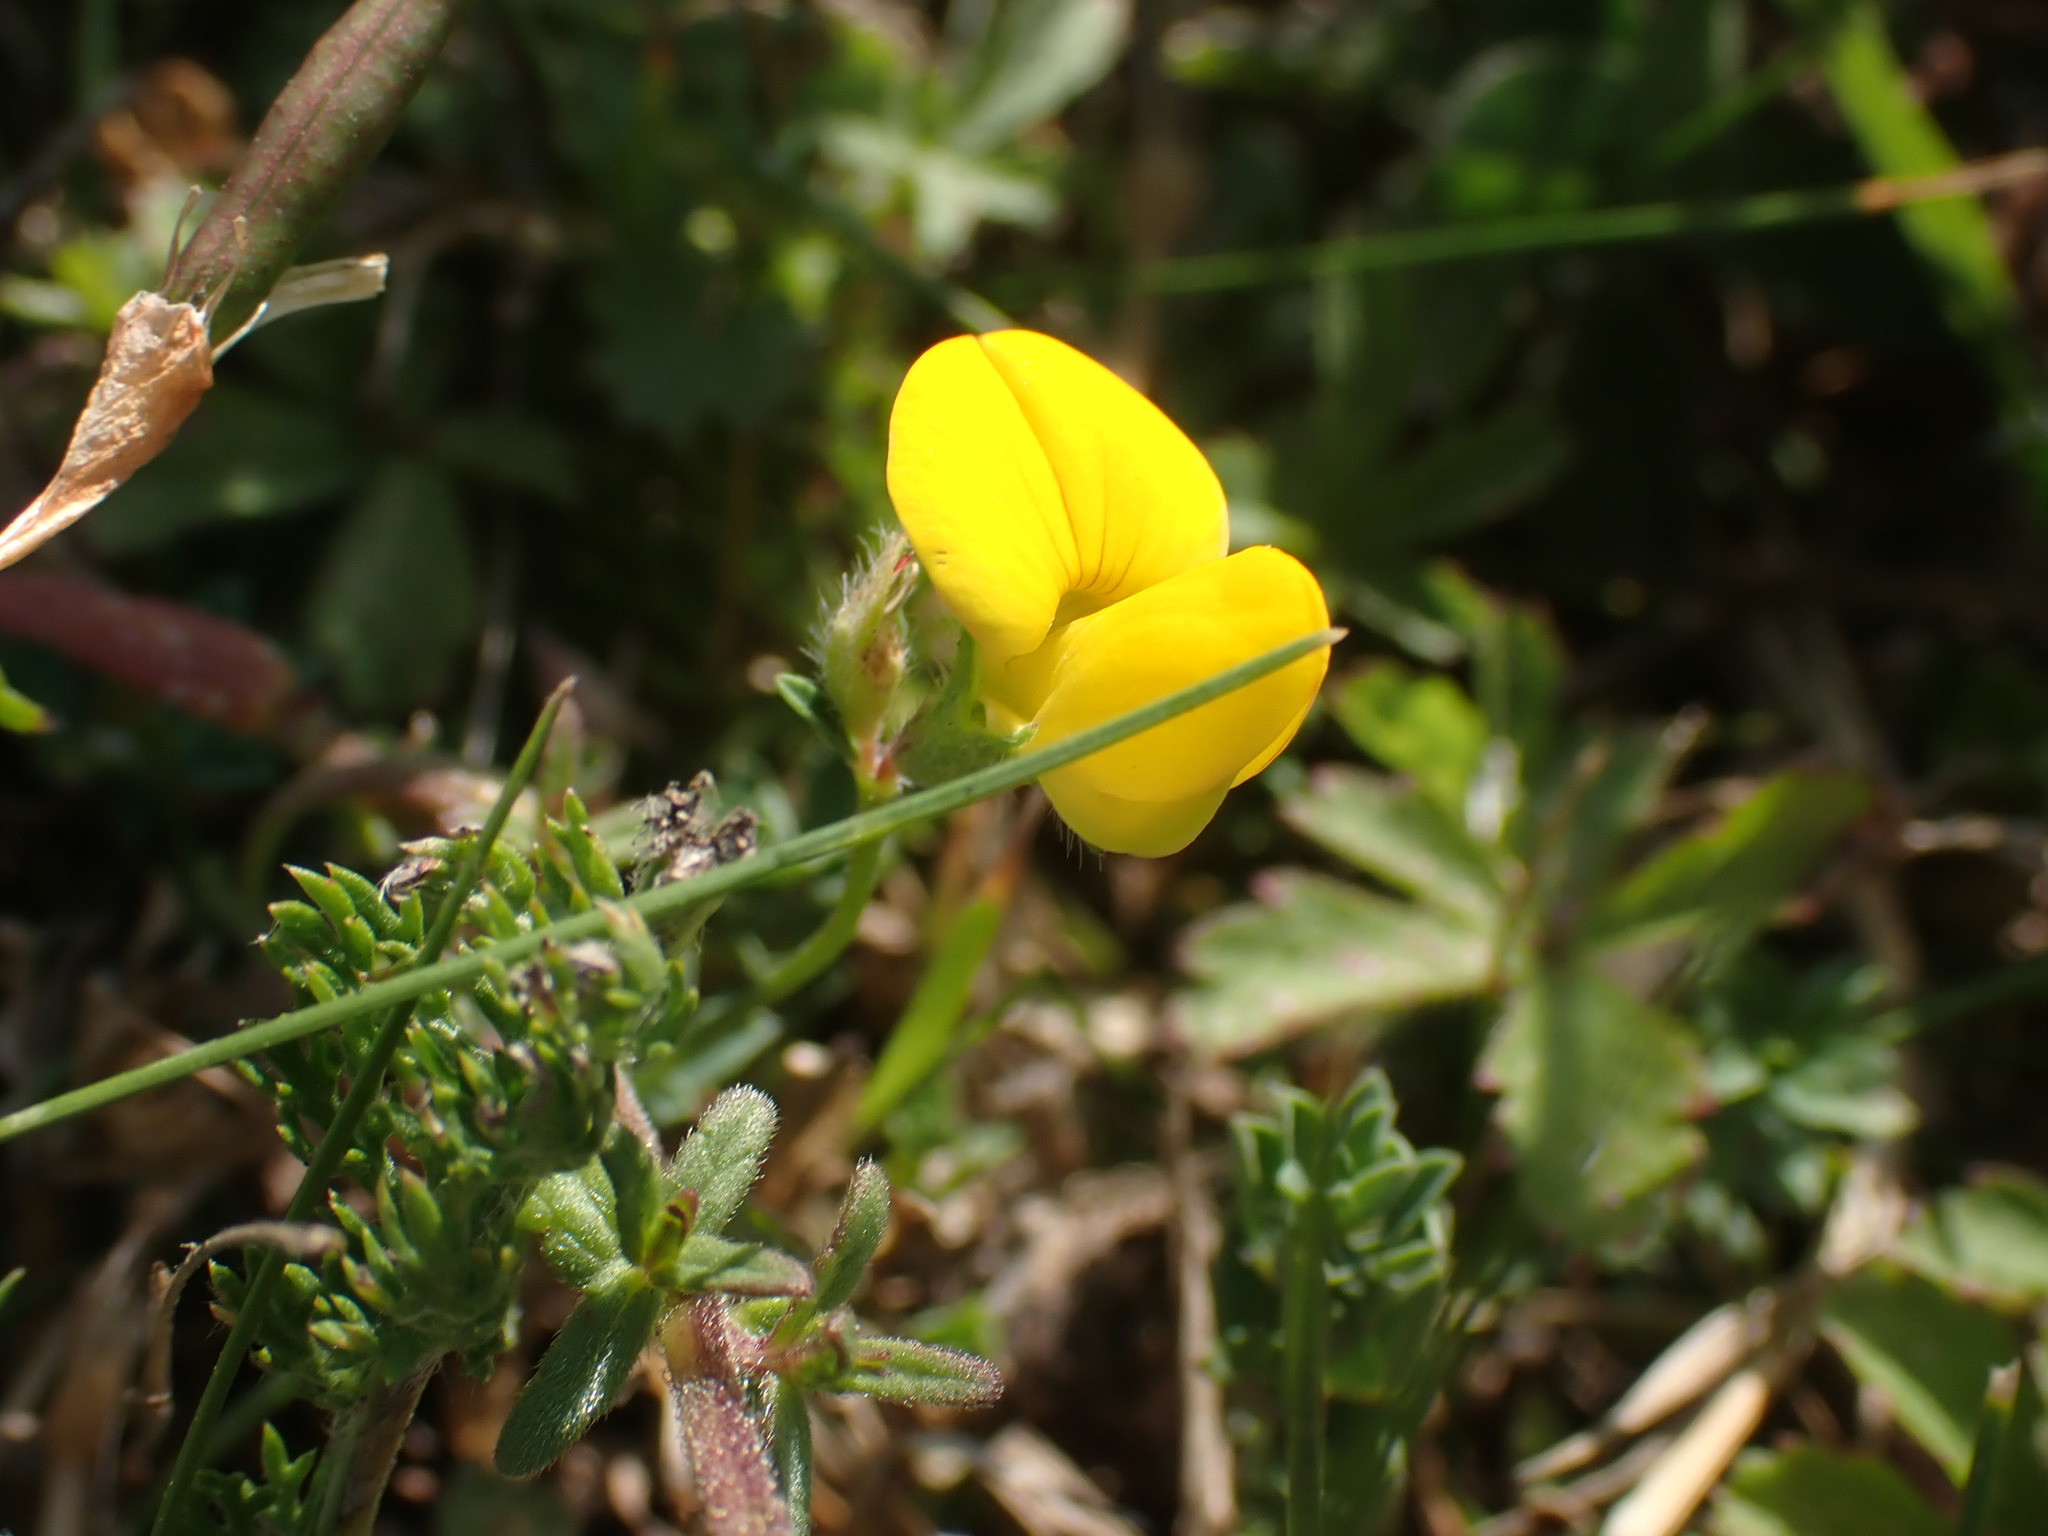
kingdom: Plantae
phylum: Tracheophyta
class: Magnoliopsida
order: Fabales
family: Fabaceae
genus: Lotus
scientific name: Lotus corniculatus
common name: Common bird's-foot-trefoil
